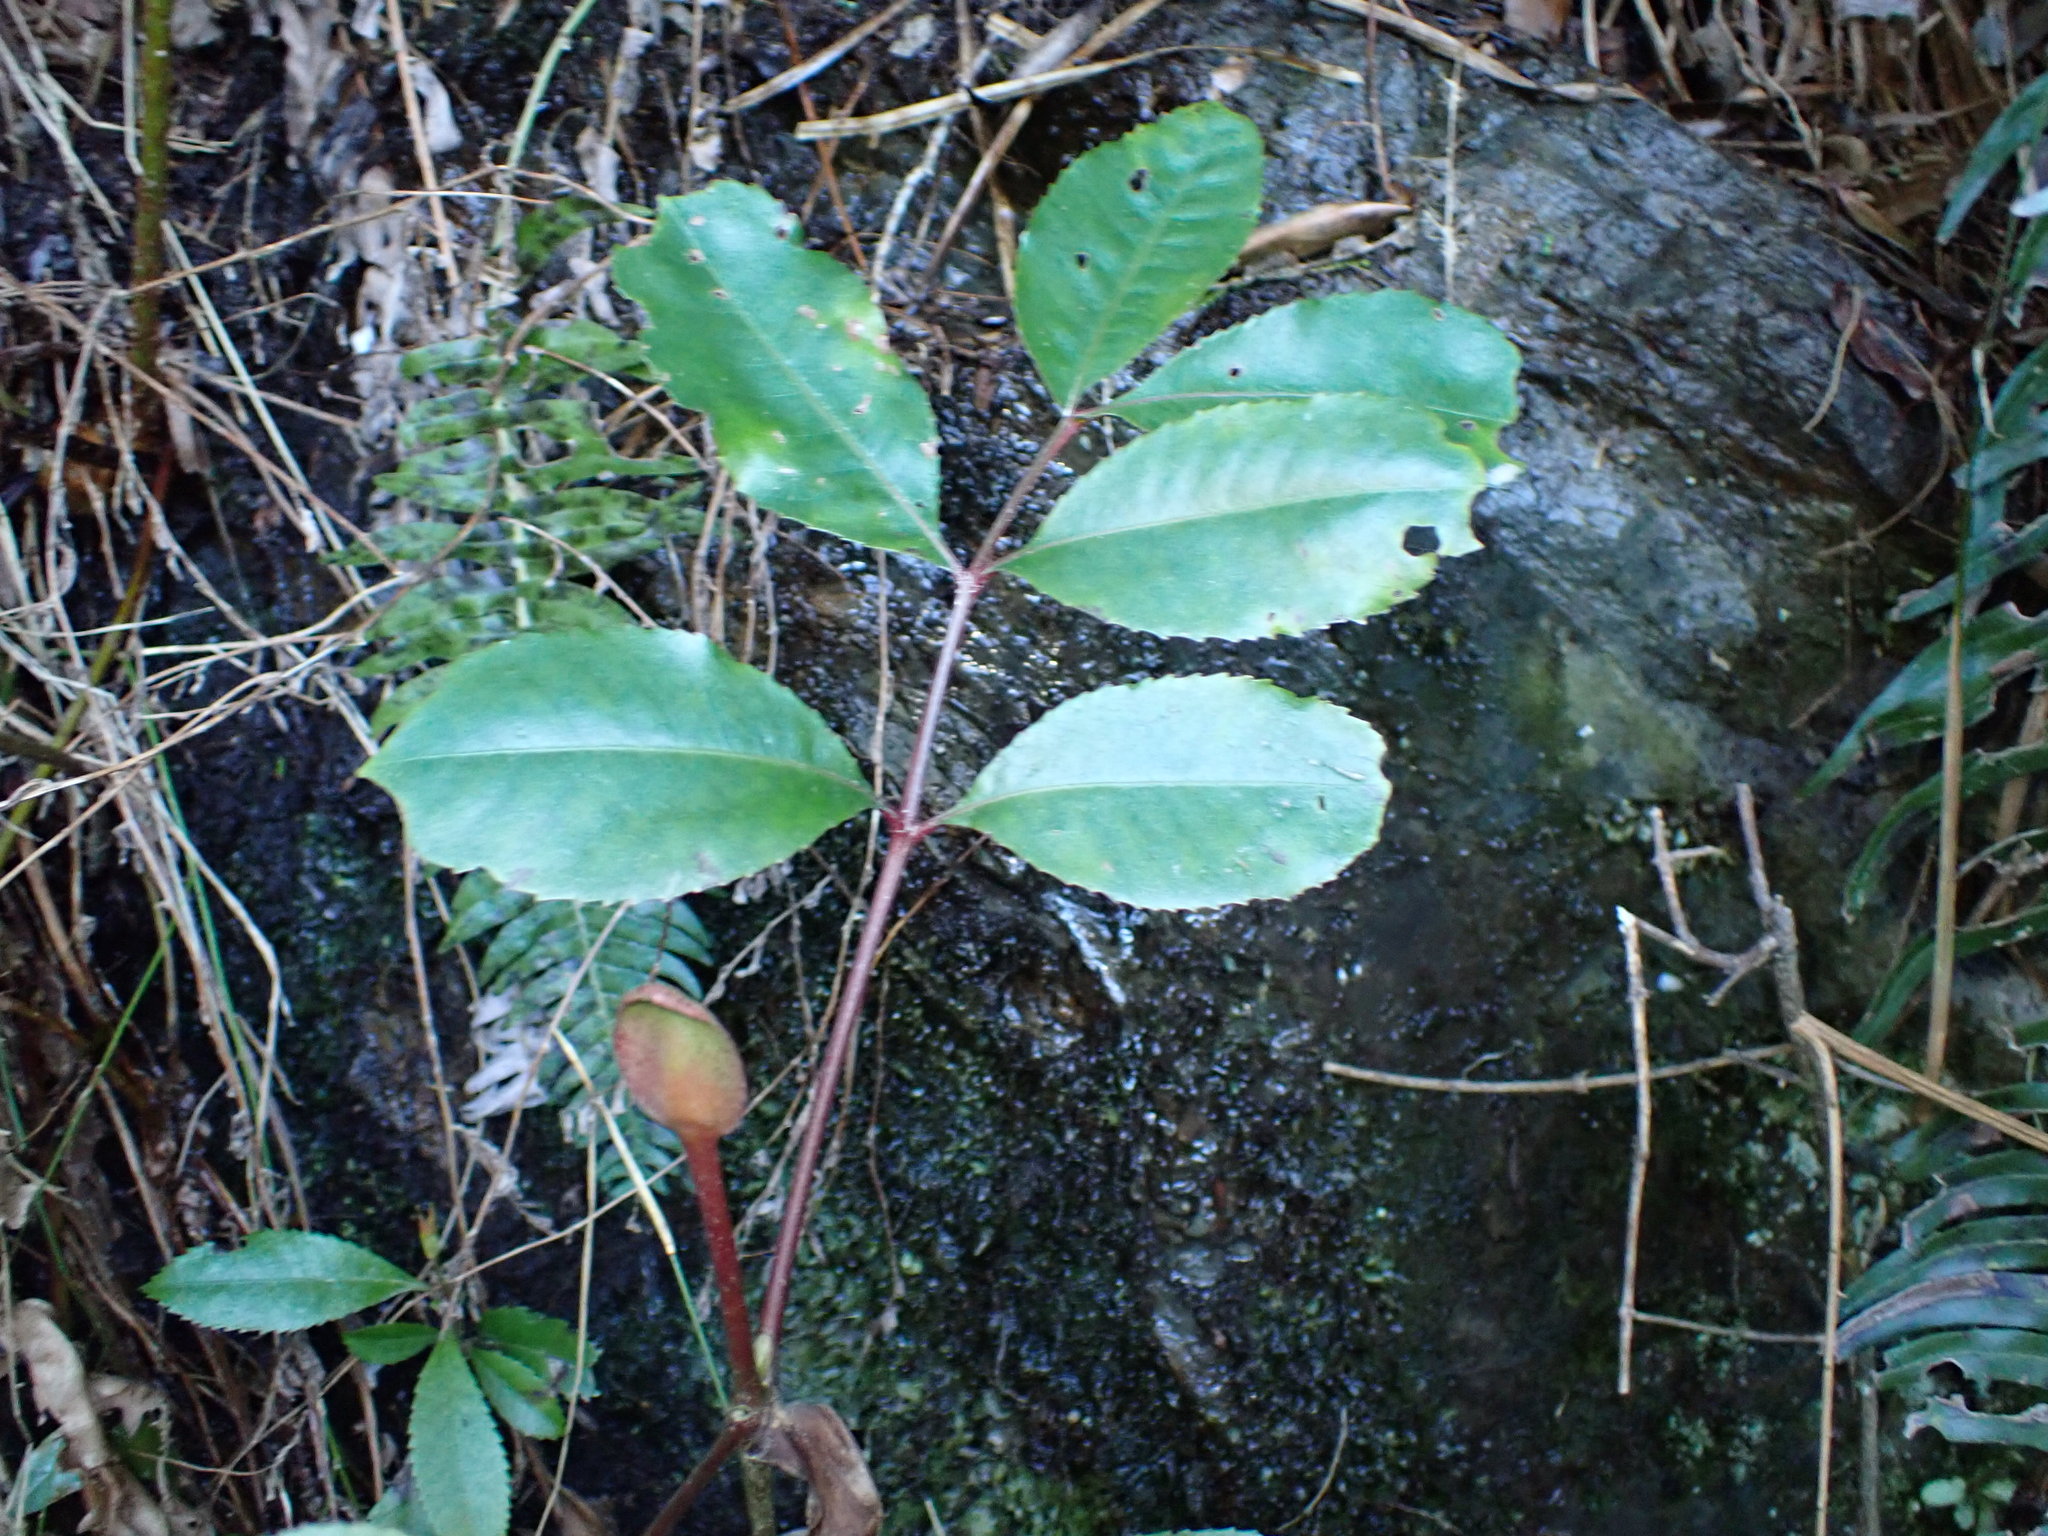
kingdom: Plantae
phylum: Tracheophyta
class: Magnoliopsida
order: Oxalidales
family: Cunoniaceae
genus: Cunonia
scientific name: Cunonia capensis
